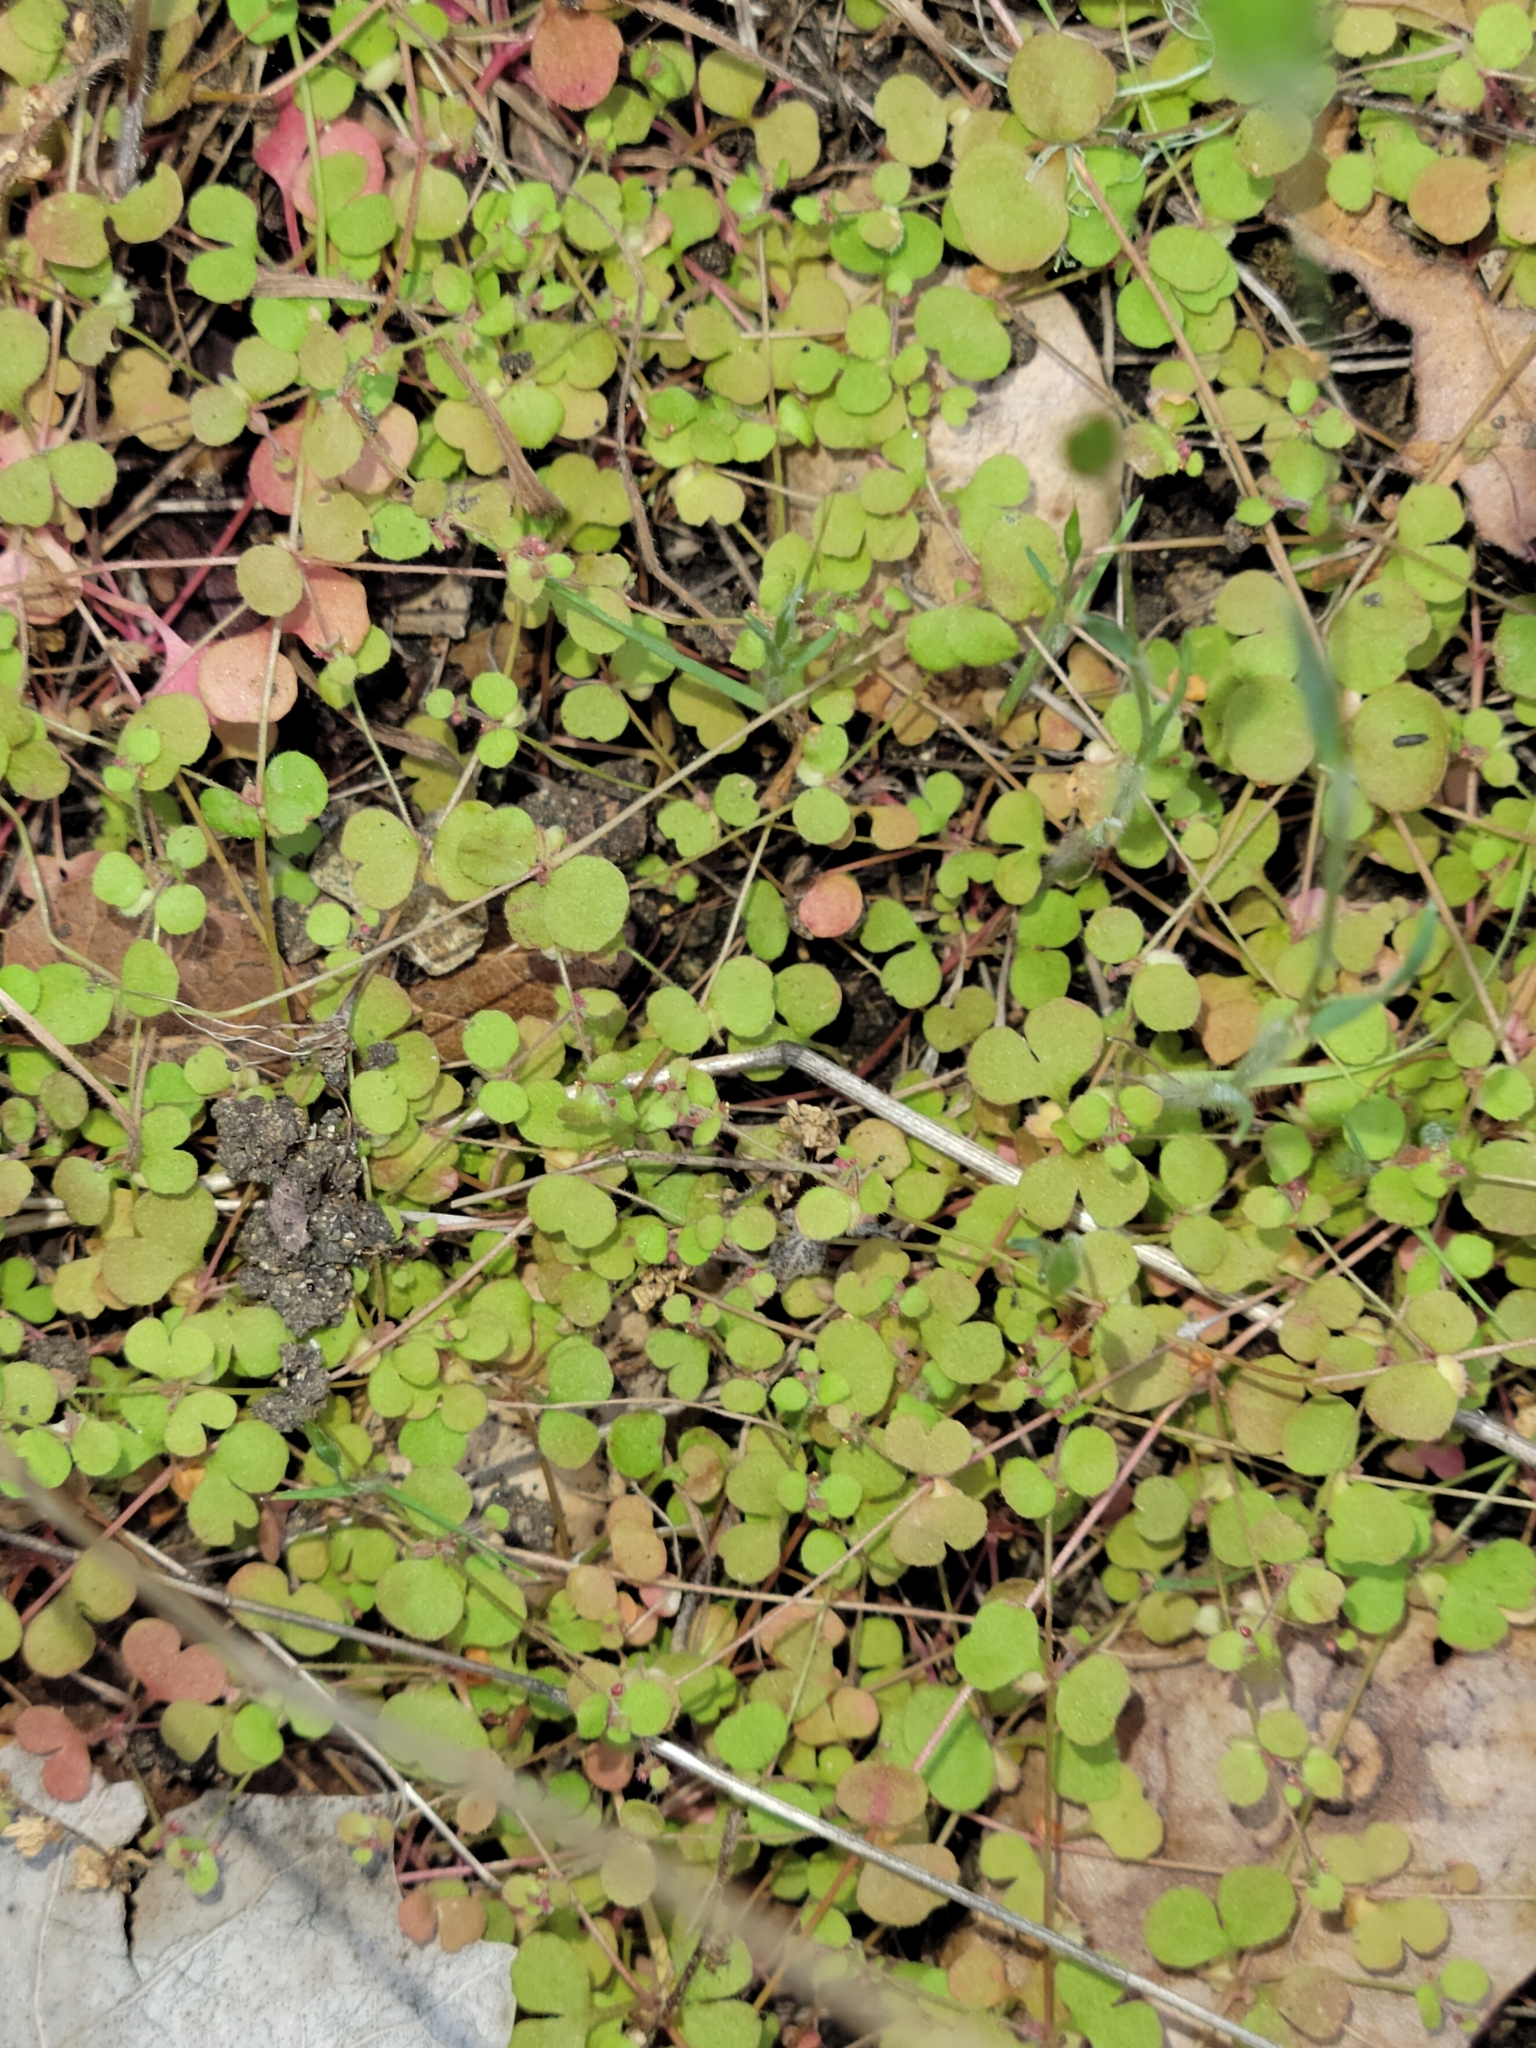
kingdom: Plantae
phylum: Tracheophyta
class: Magnoliopsida
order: Caryophyllales
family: Polygonaceae
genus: Pterostegia
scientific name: Pterostegia drymarioides
